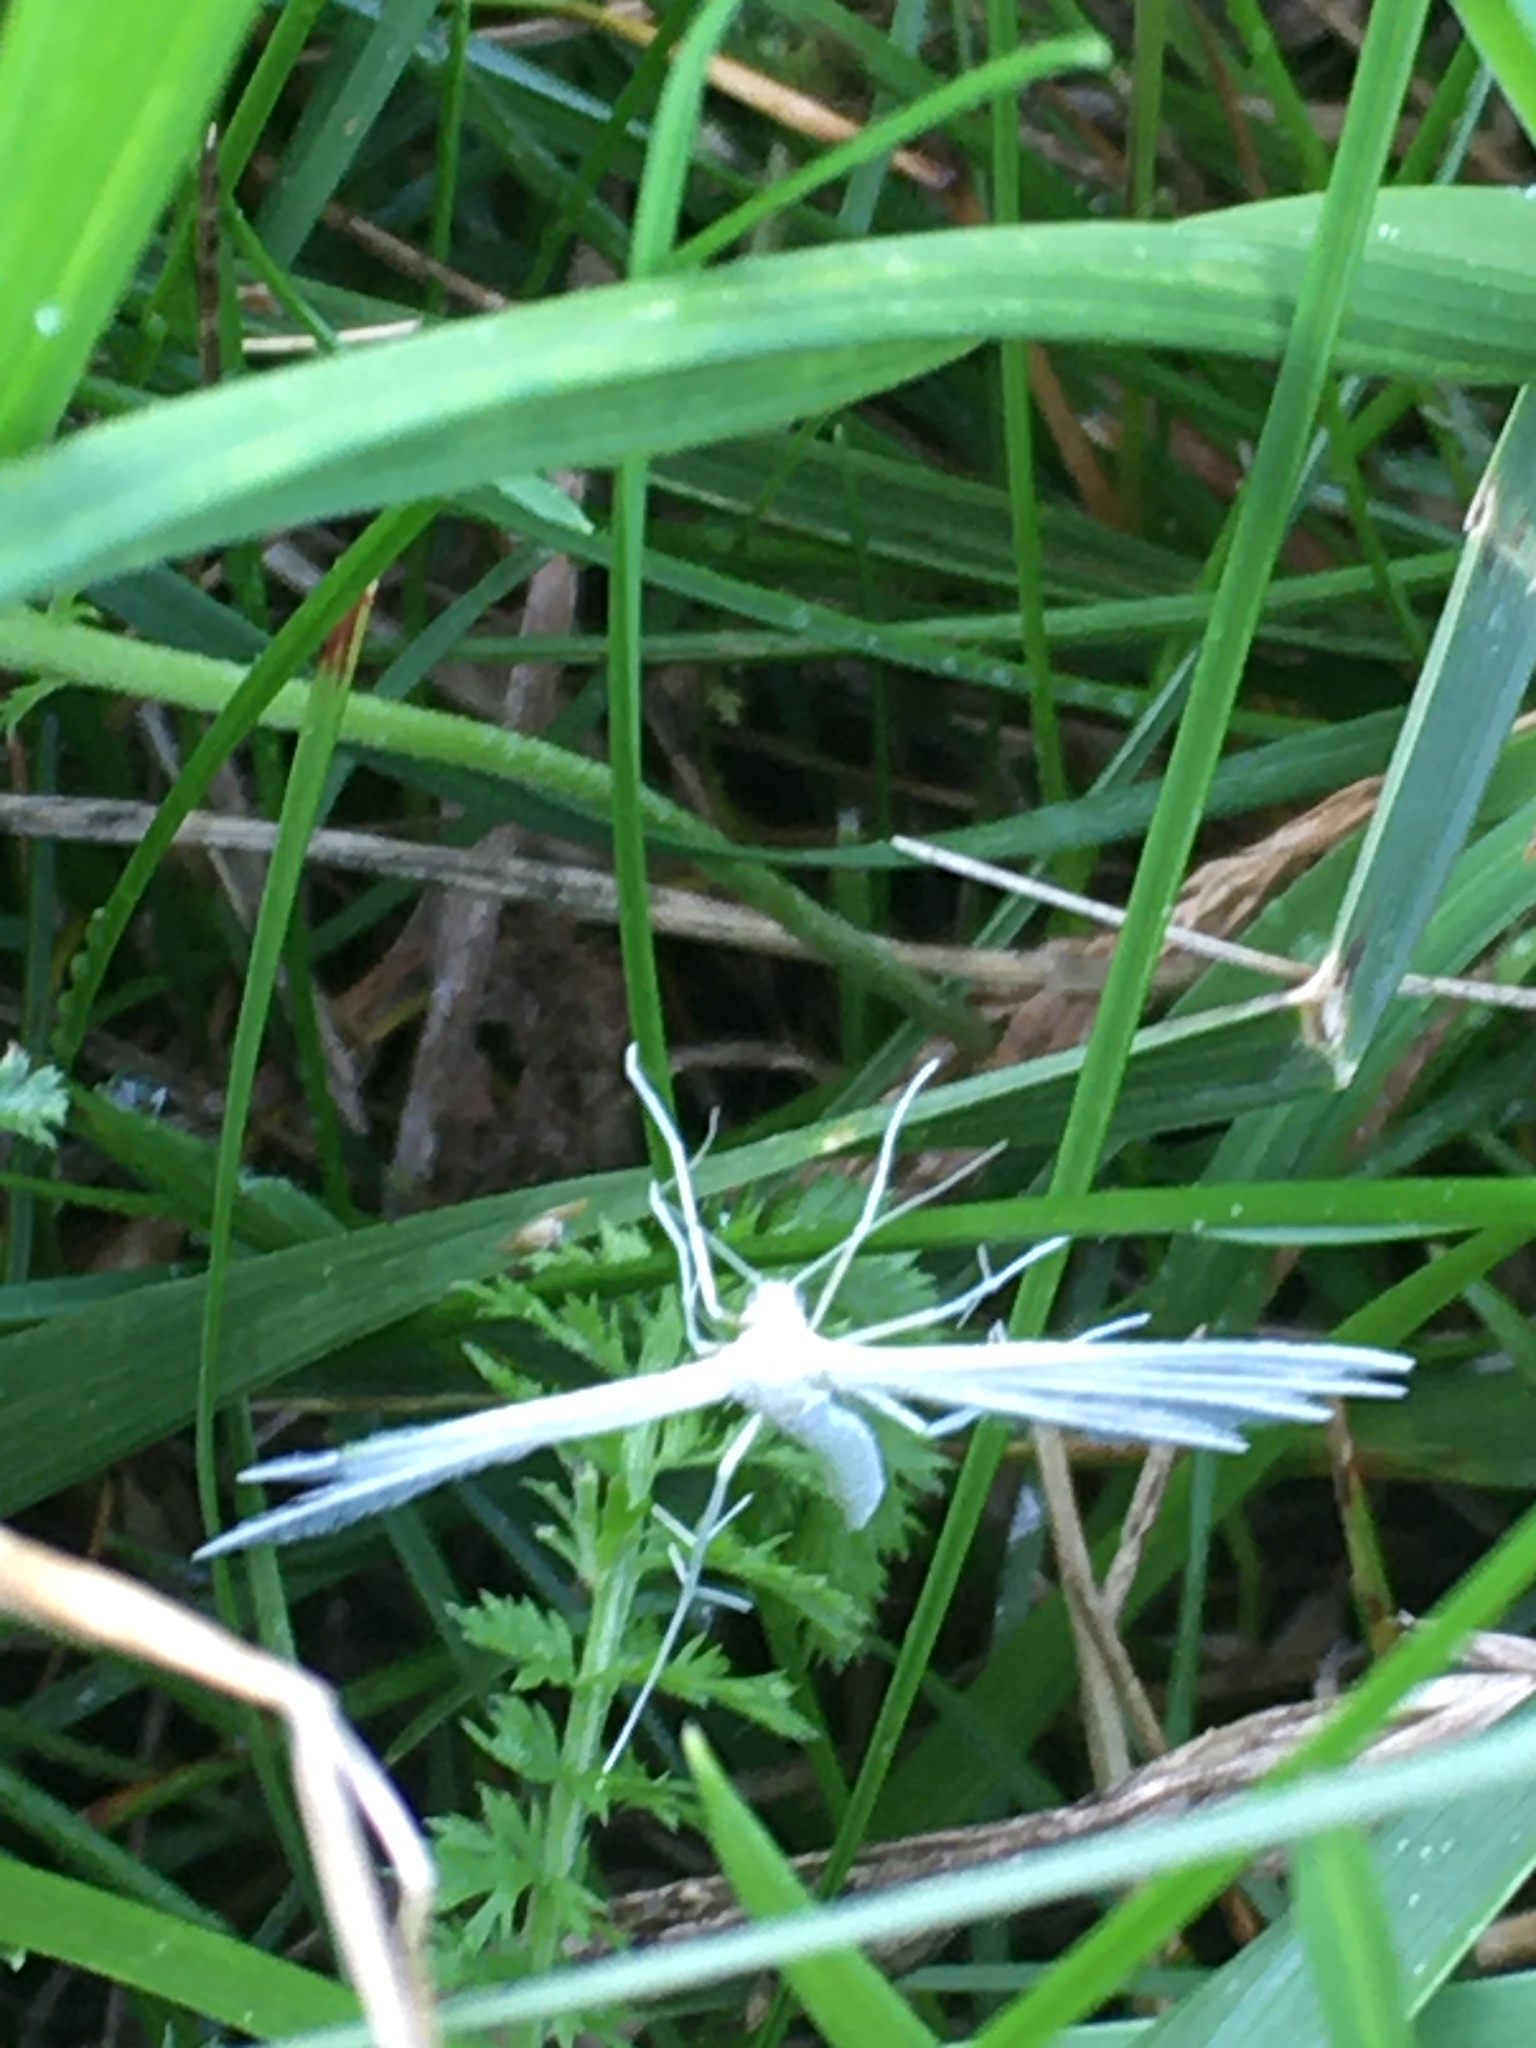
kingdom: Animalia
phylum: Arthropoda
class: Insecta
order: Lepidoptera
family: Pterophoridae
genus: Pterophorus
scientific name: Pterophorus pentadactyla
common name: White plume moth
